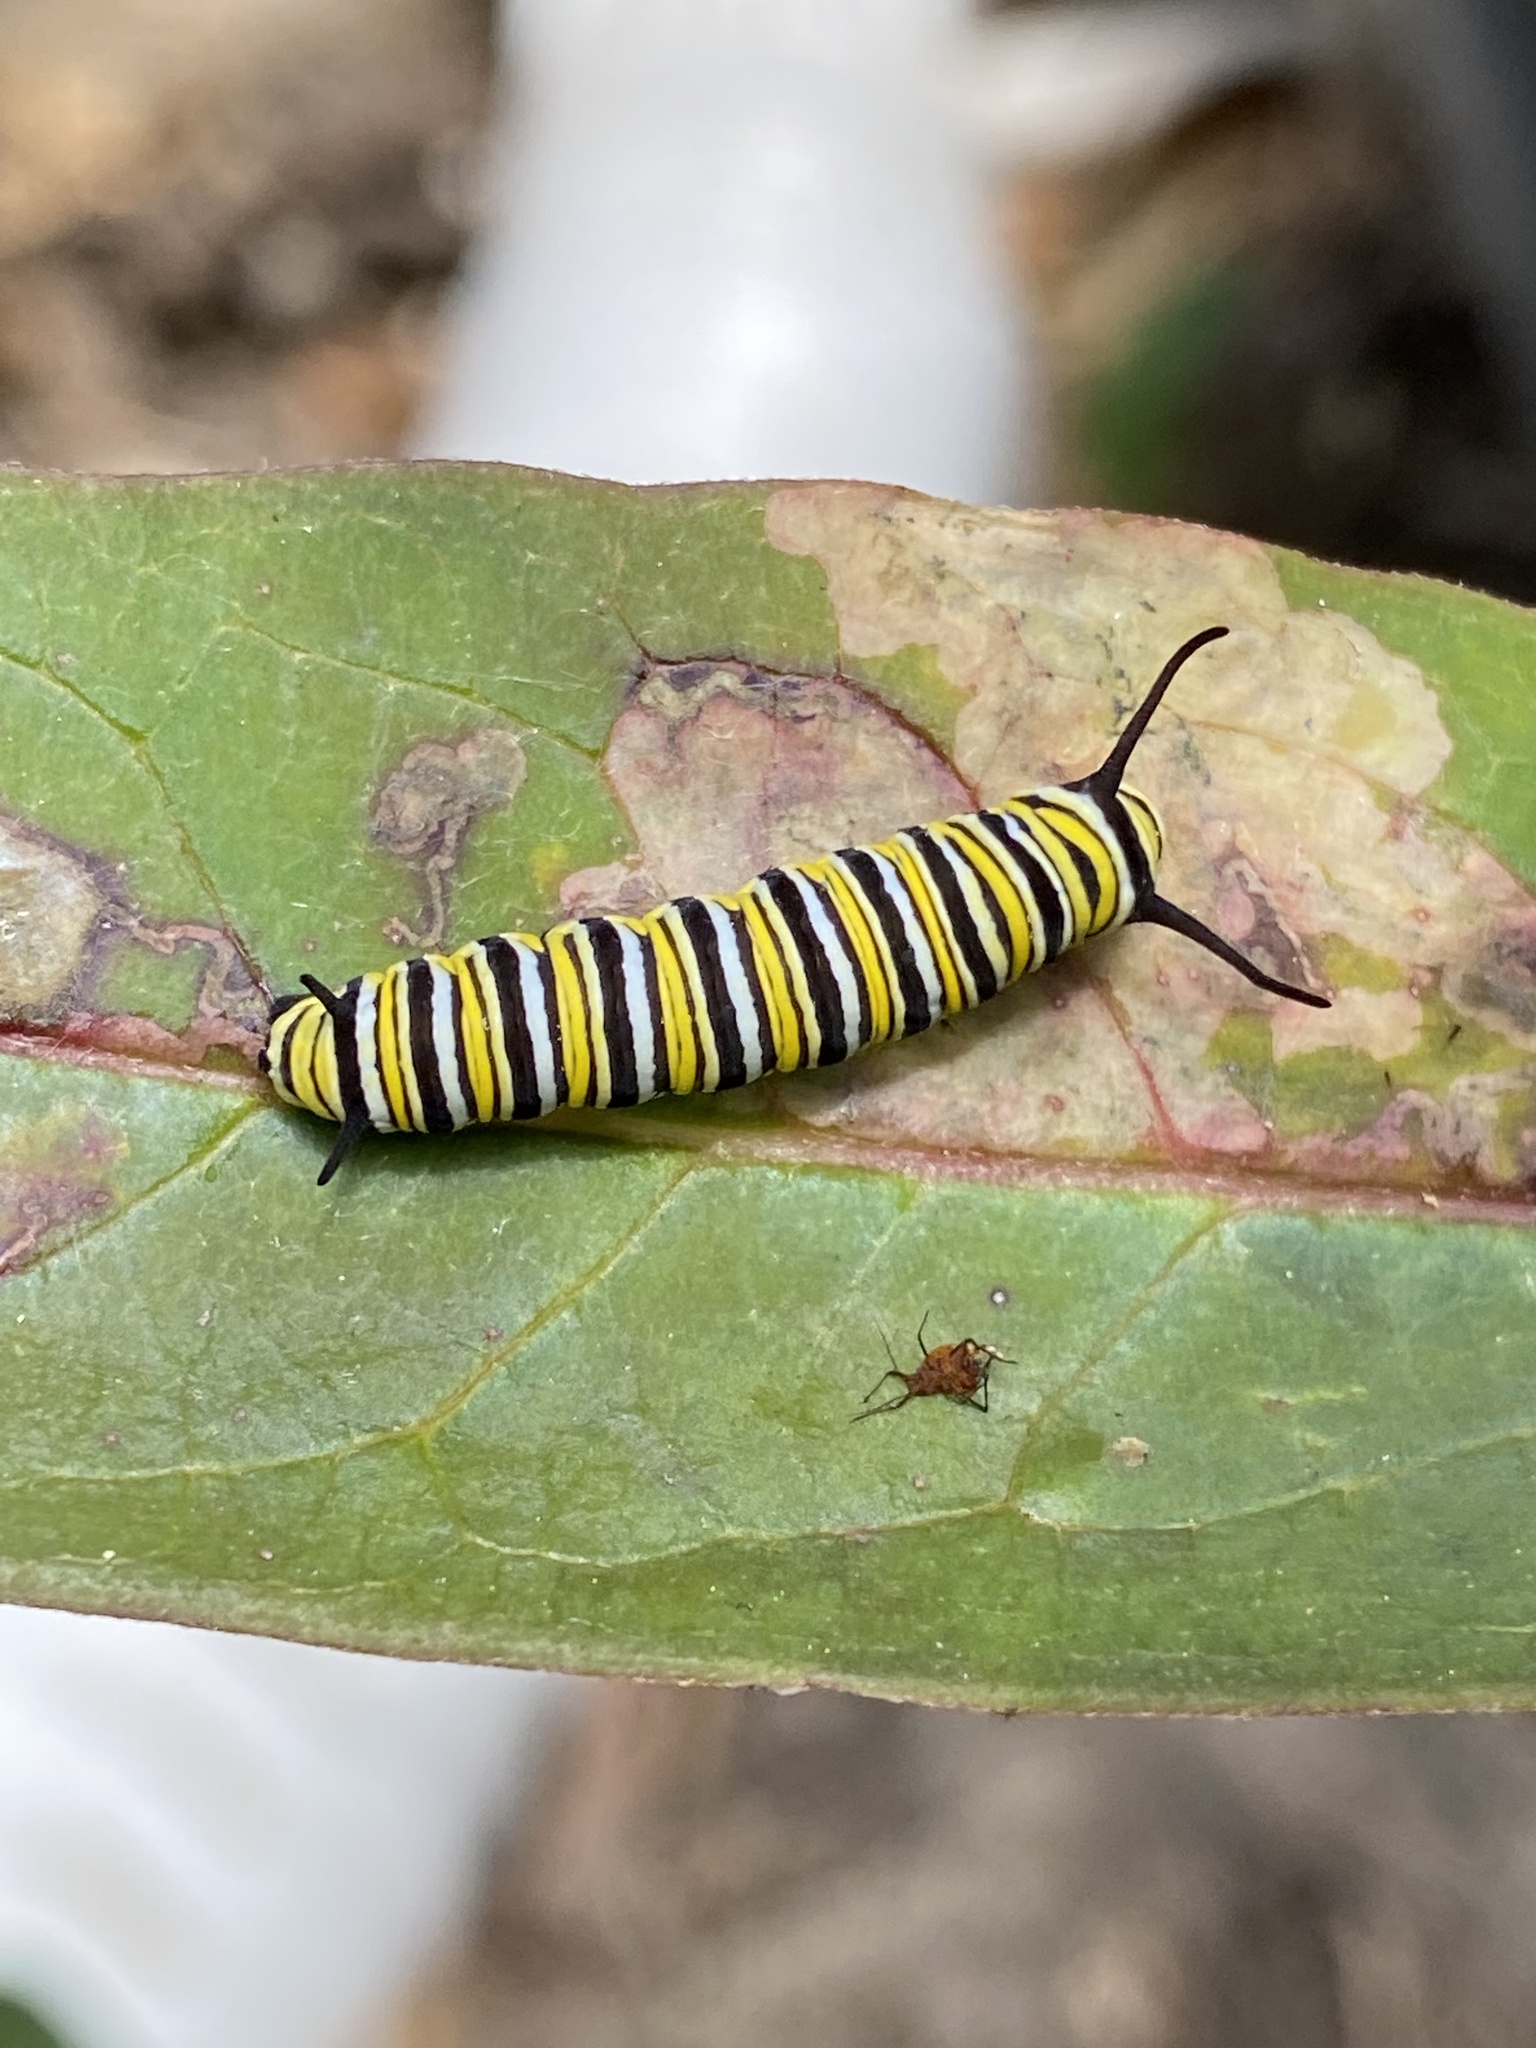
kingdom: Animalia
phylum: Arthropoda
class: Insecta
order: Lepidoptera
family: Nymphalidae
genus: Danaus
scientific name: Danaus plexippus
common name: Monarch
